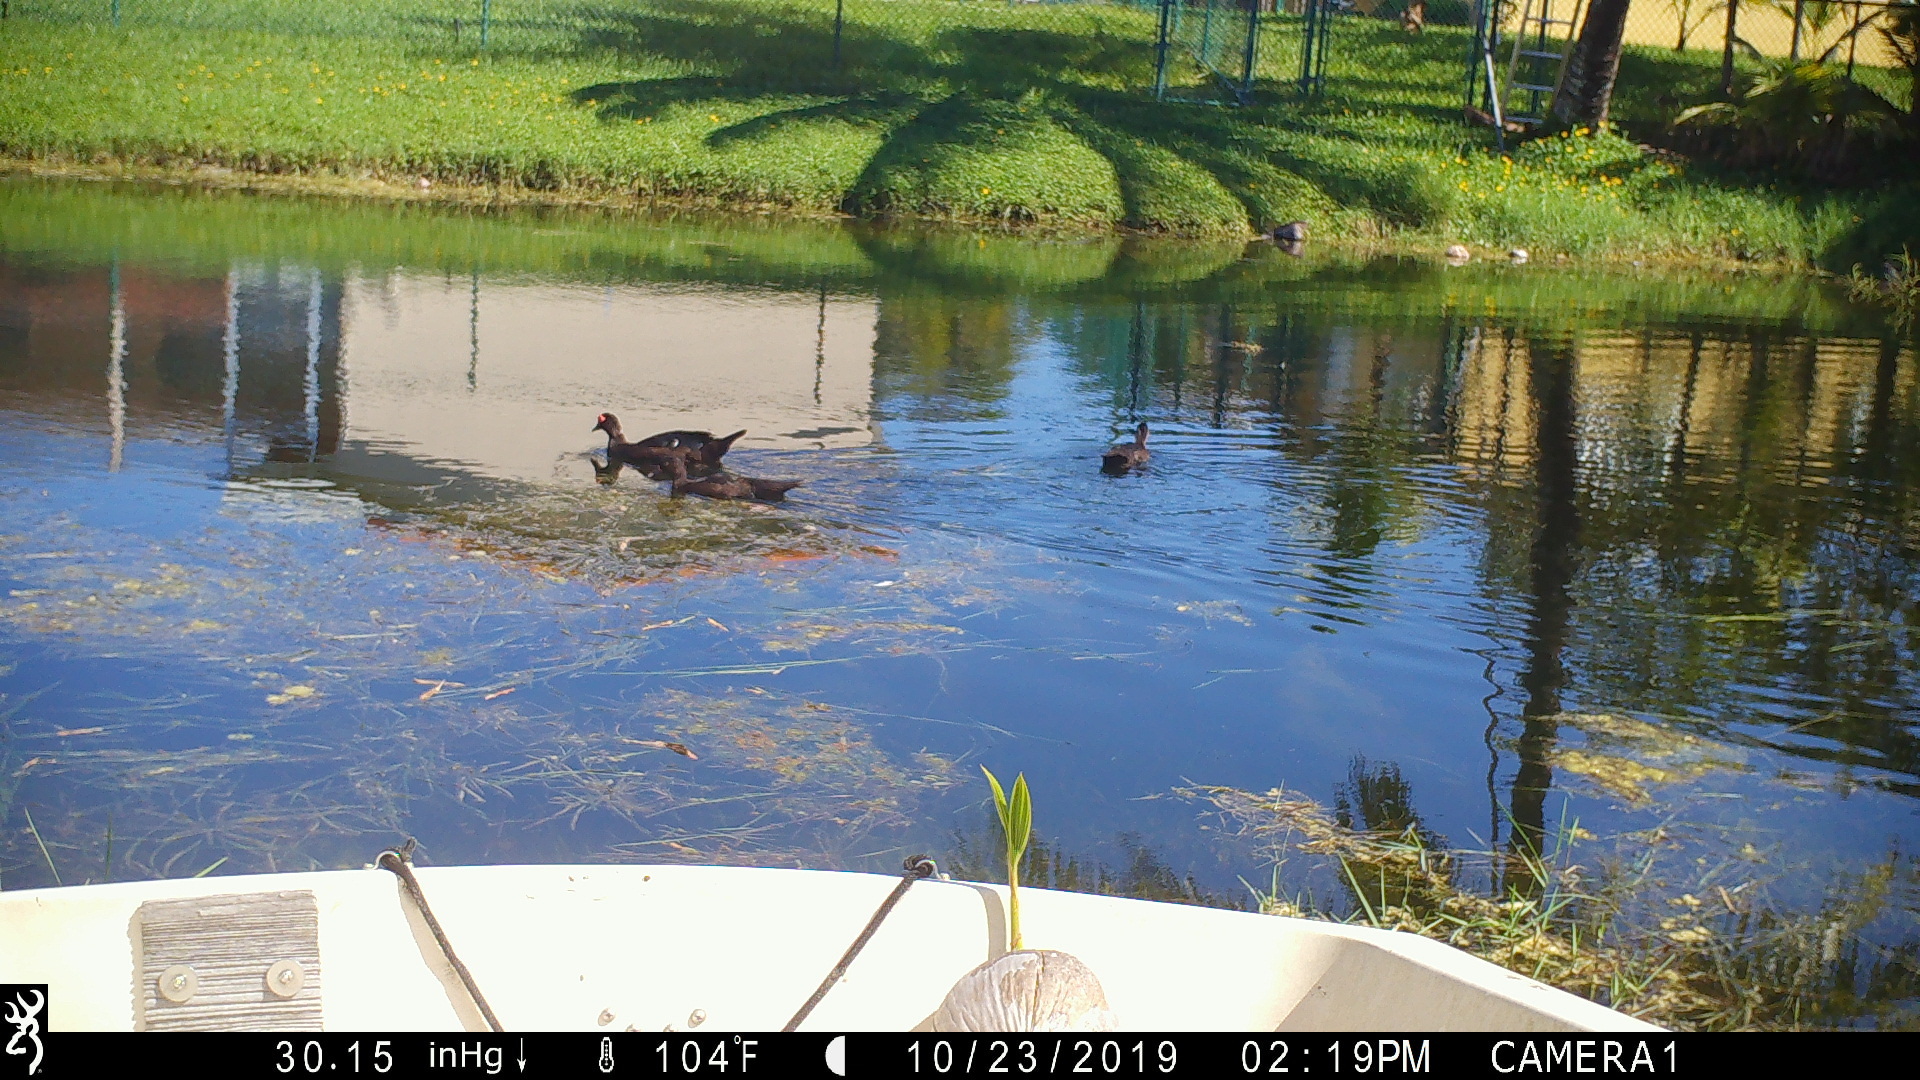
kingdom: Animalia
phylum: Chordata
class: Aves
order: Anseriformes
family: Anatidae
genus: Cairina
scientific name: Cairina moschata
